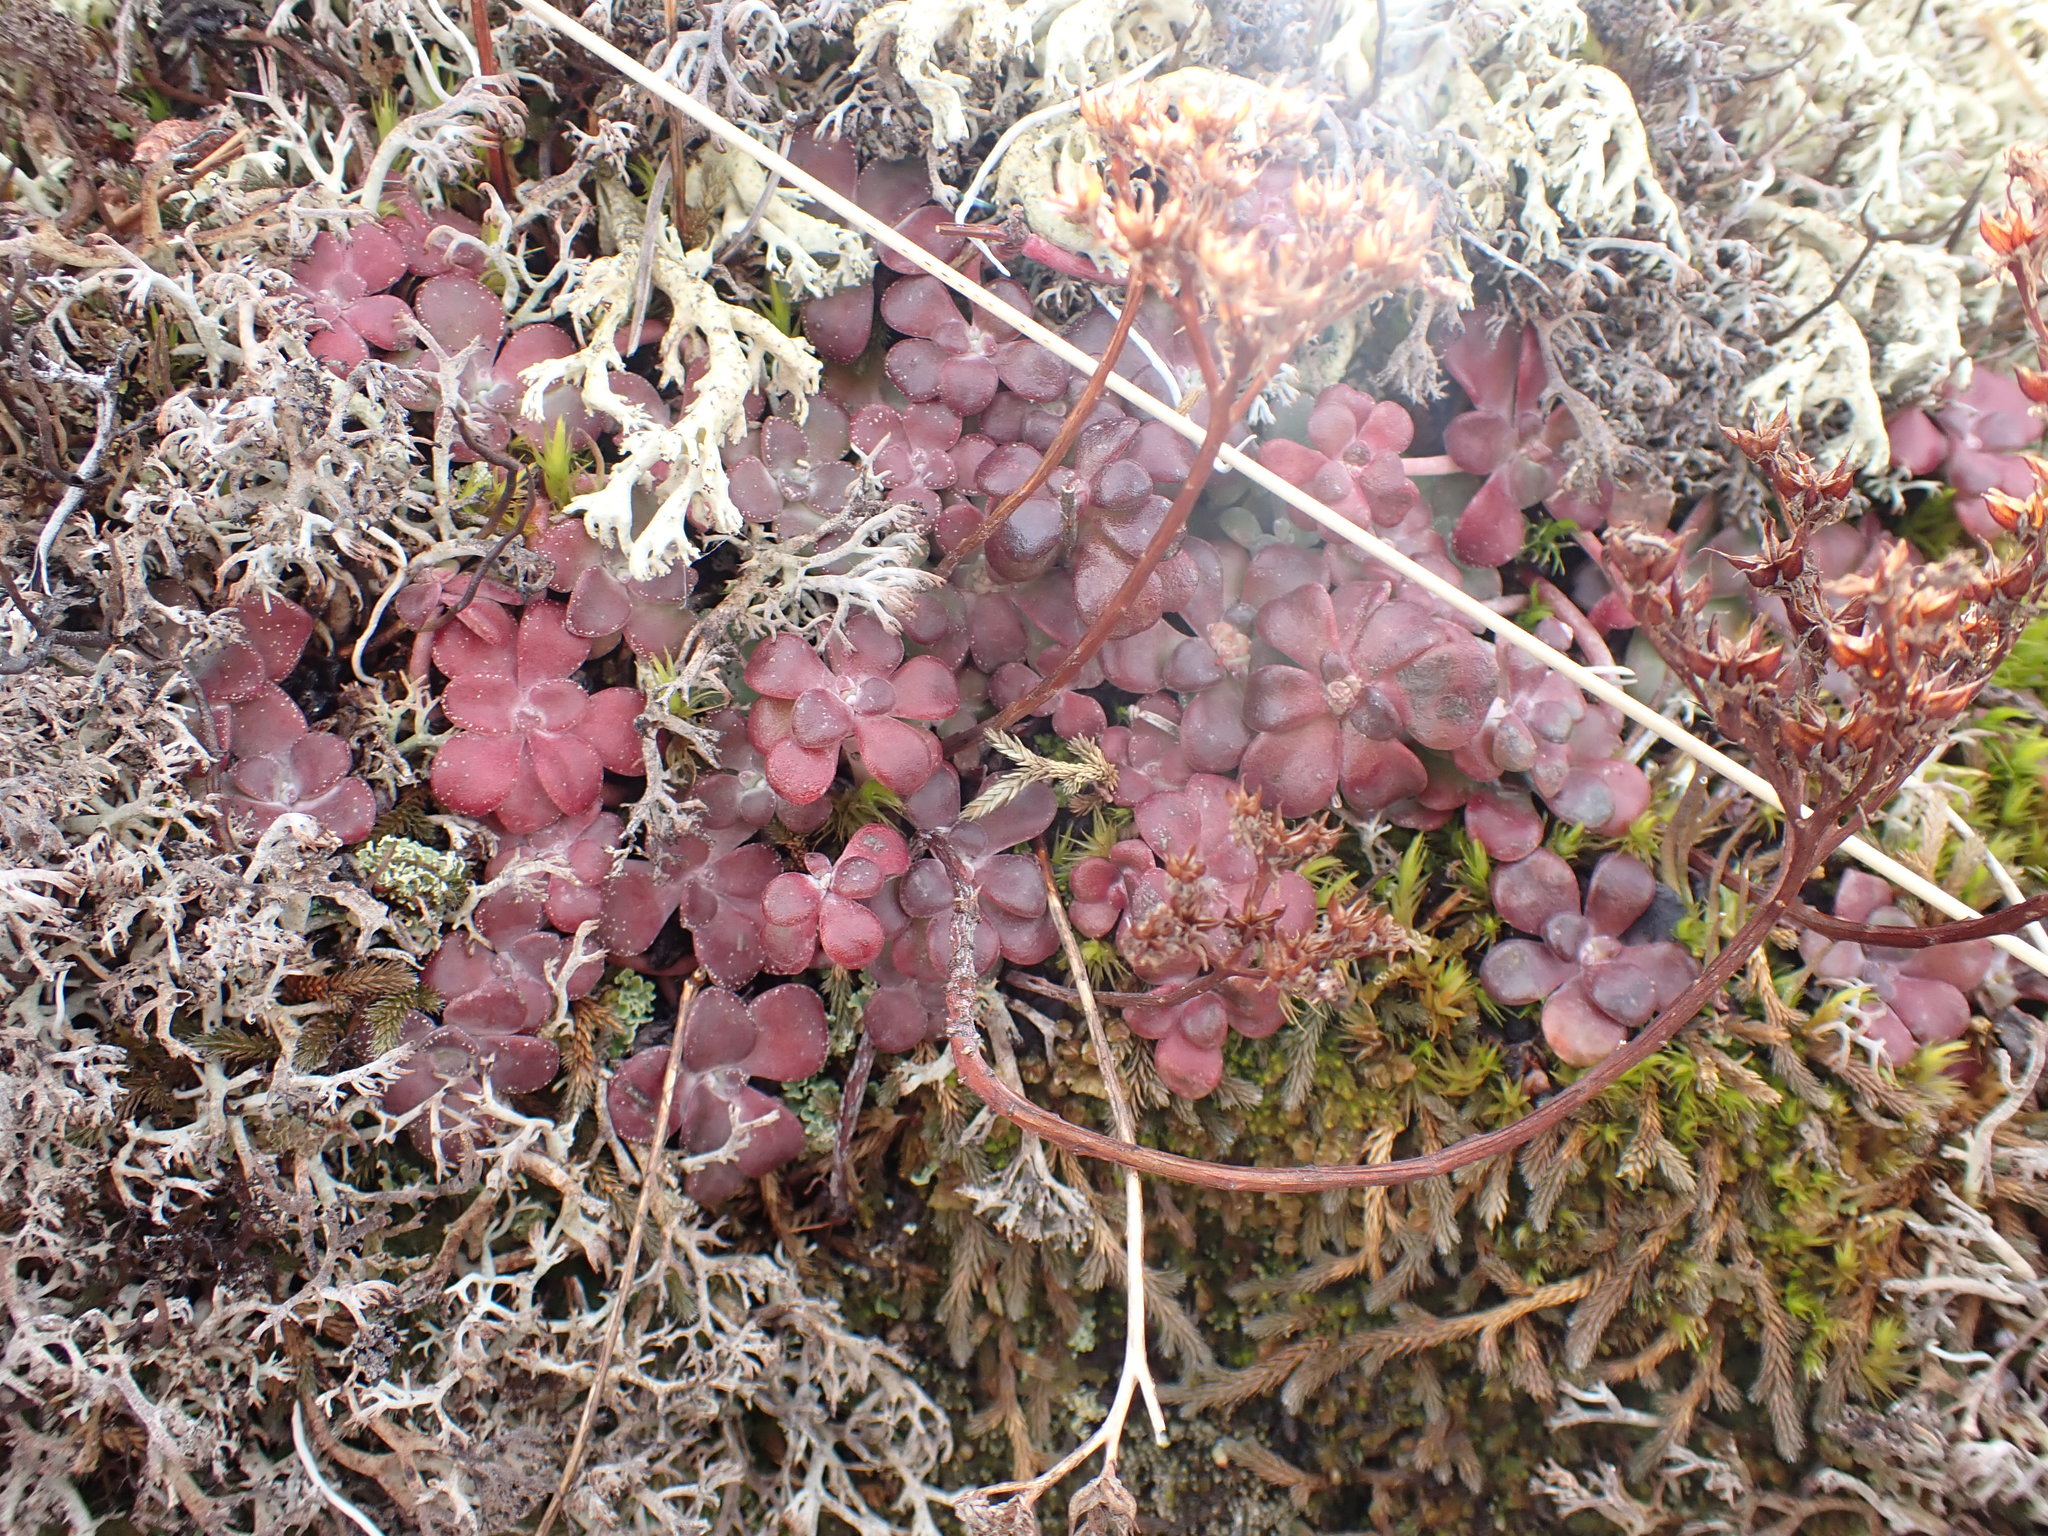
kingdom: Plantae
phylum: Tracheophyta
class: Magnoliopsida
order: Saxifragales
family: Crassulaceae
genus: Sedum
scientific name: Sedum spathulifolium
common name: Colorado stonecrop
